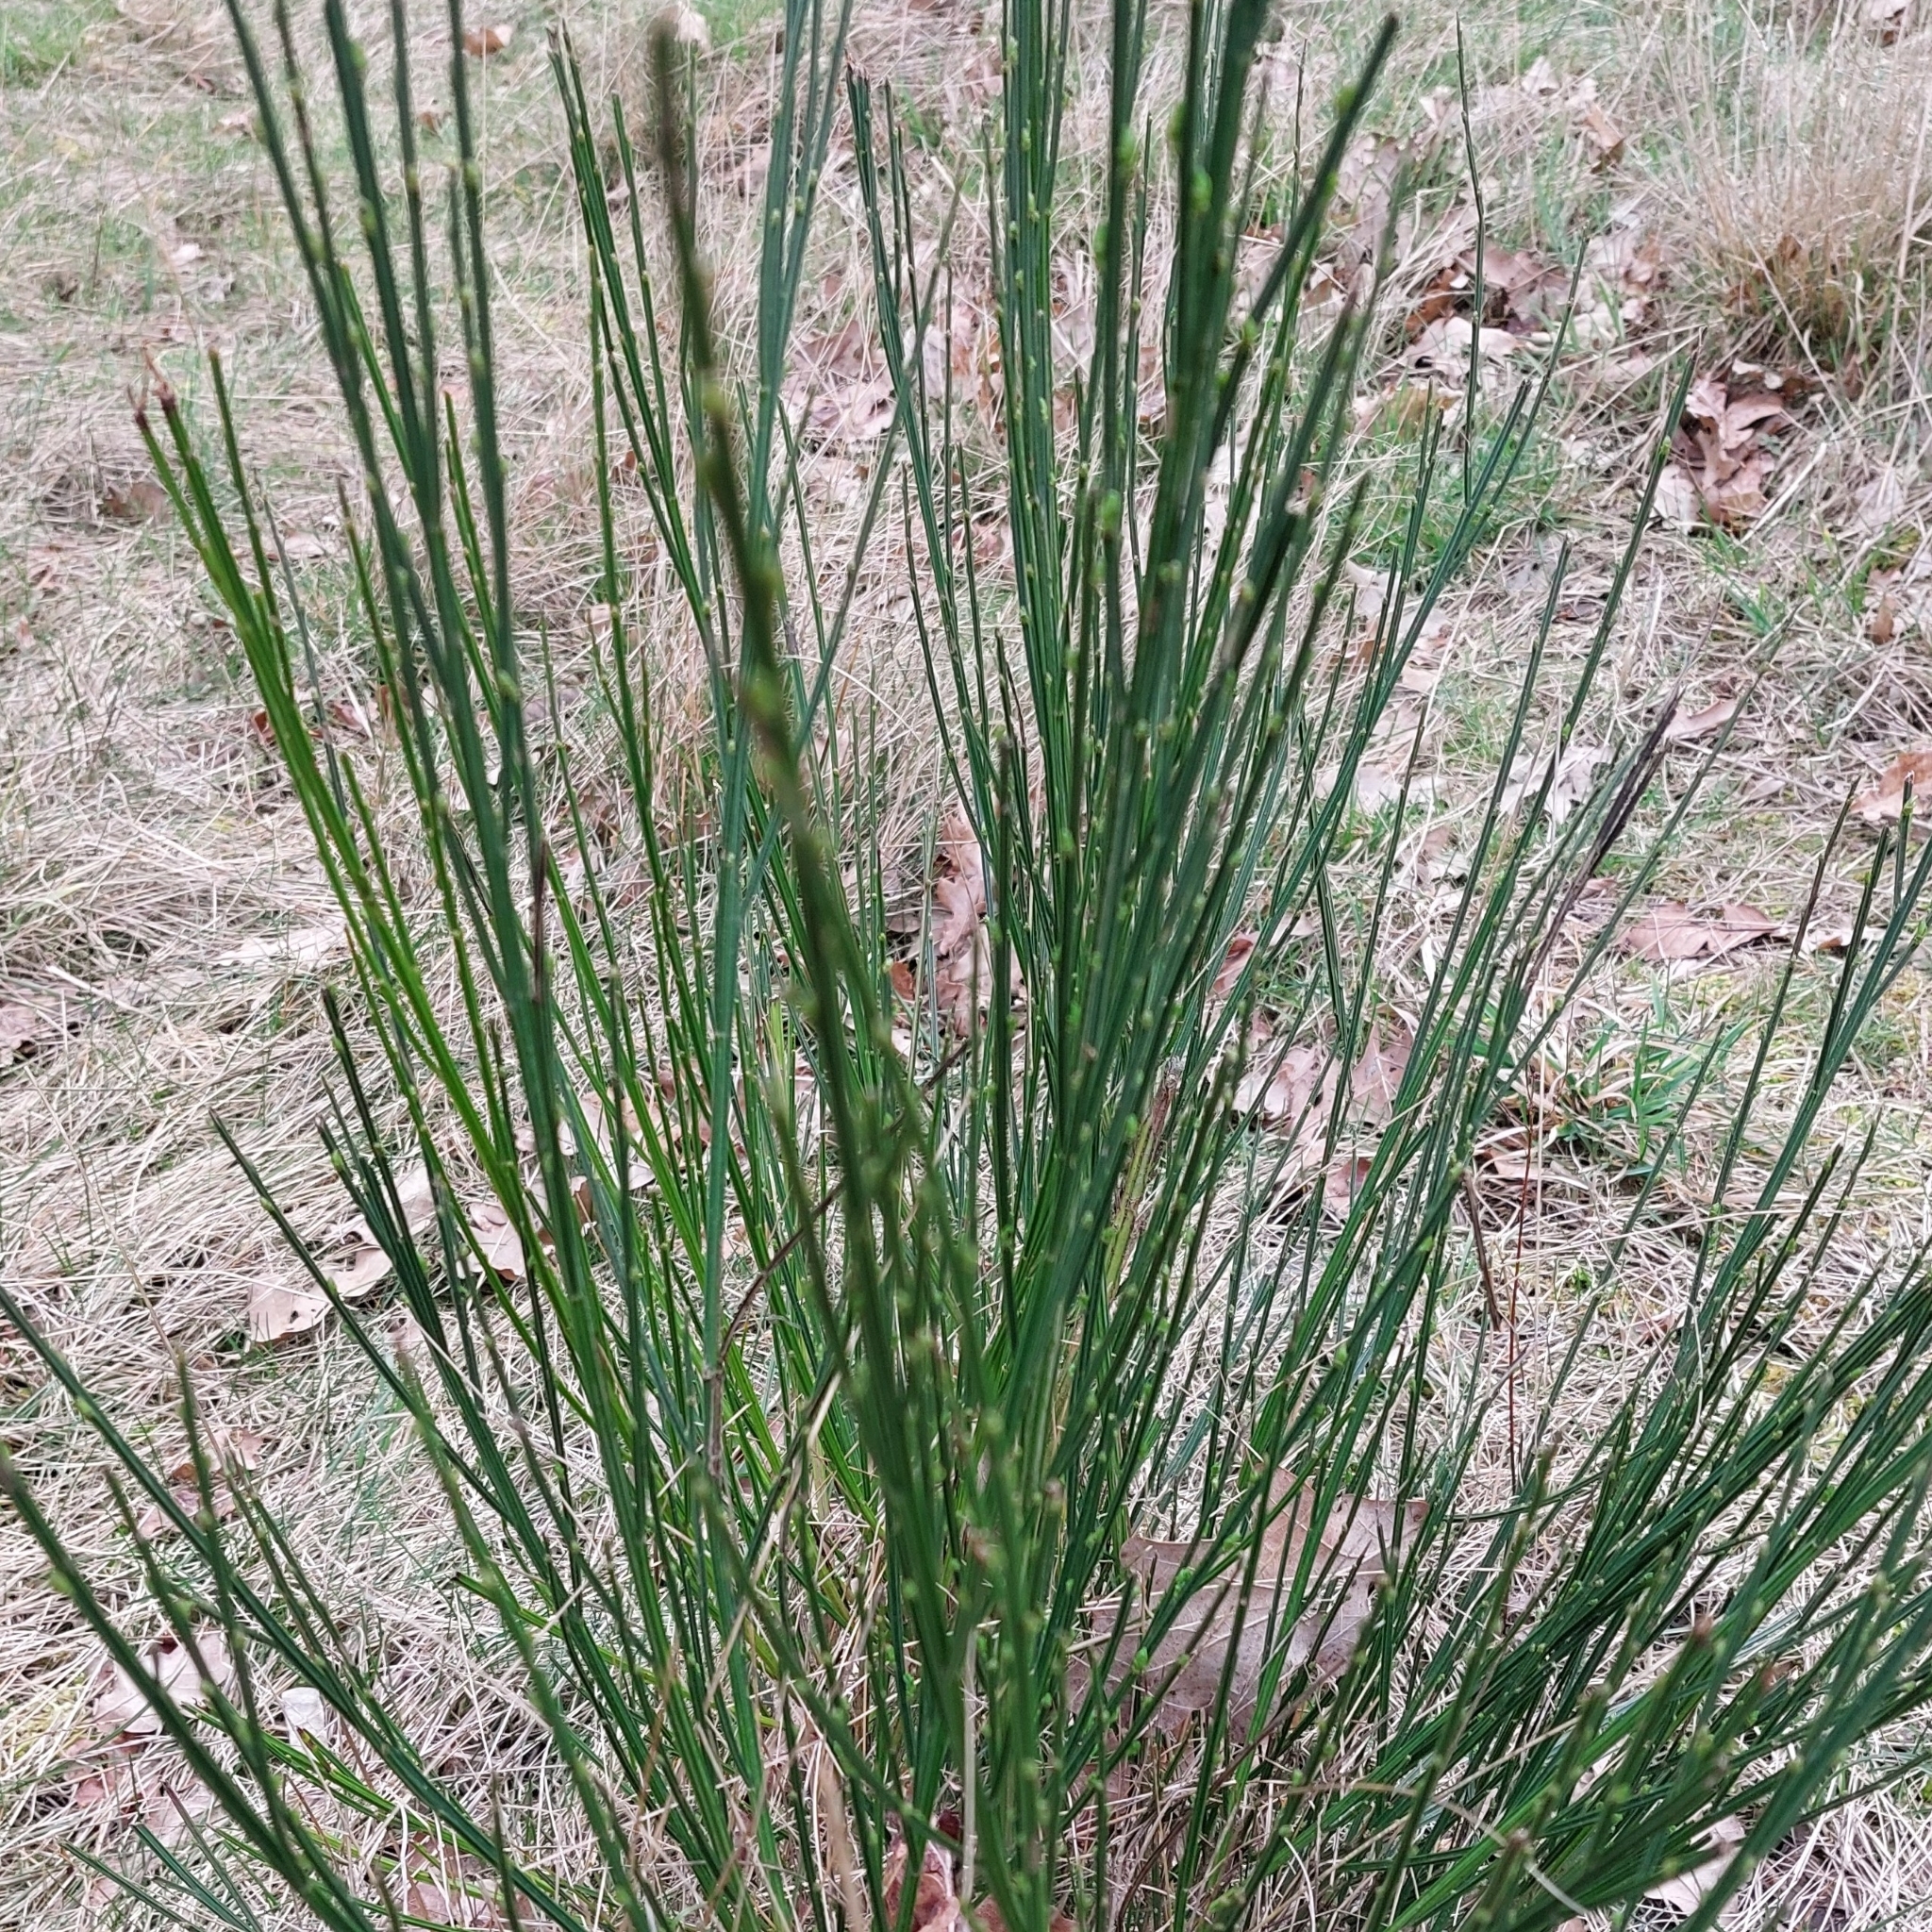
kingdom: Plantae
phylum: Tracheophyta
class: Magnoliopsida
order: Fabales
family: Fabaceae
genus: Cytisus
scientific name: Cytisus scoparius
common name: Scotch broom
